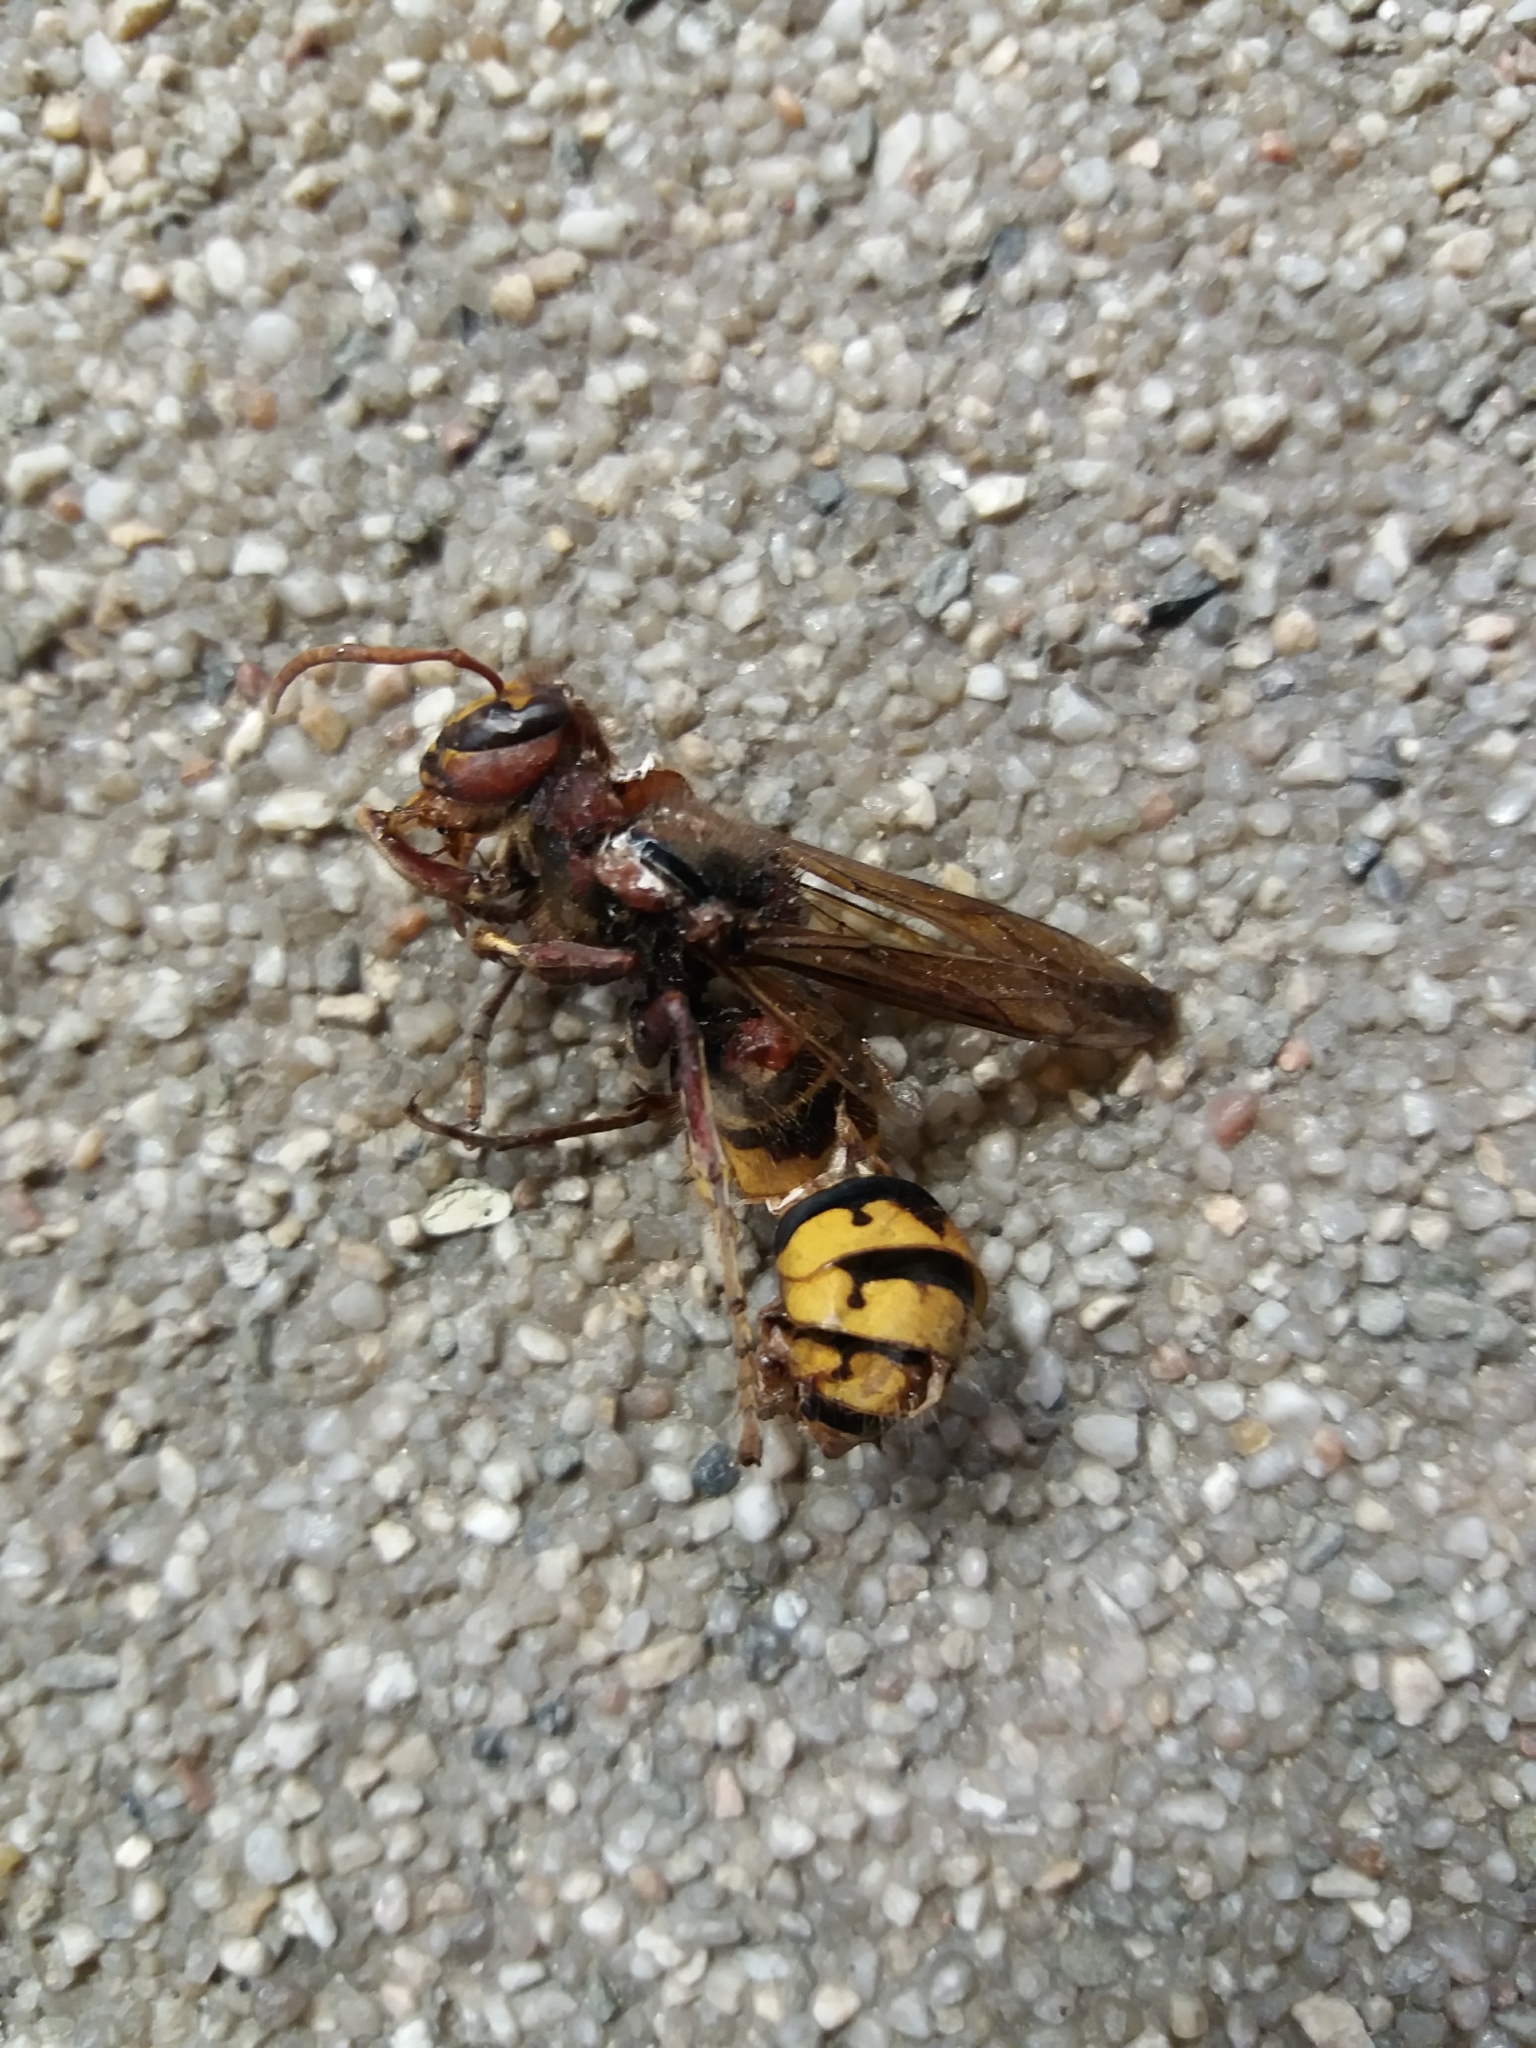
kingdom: Animalia
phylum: Arthropoda
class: Insecta
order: Hymenoptera
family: Vespidae
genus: Vespa
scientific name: Vespa crabro
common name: Hornet
